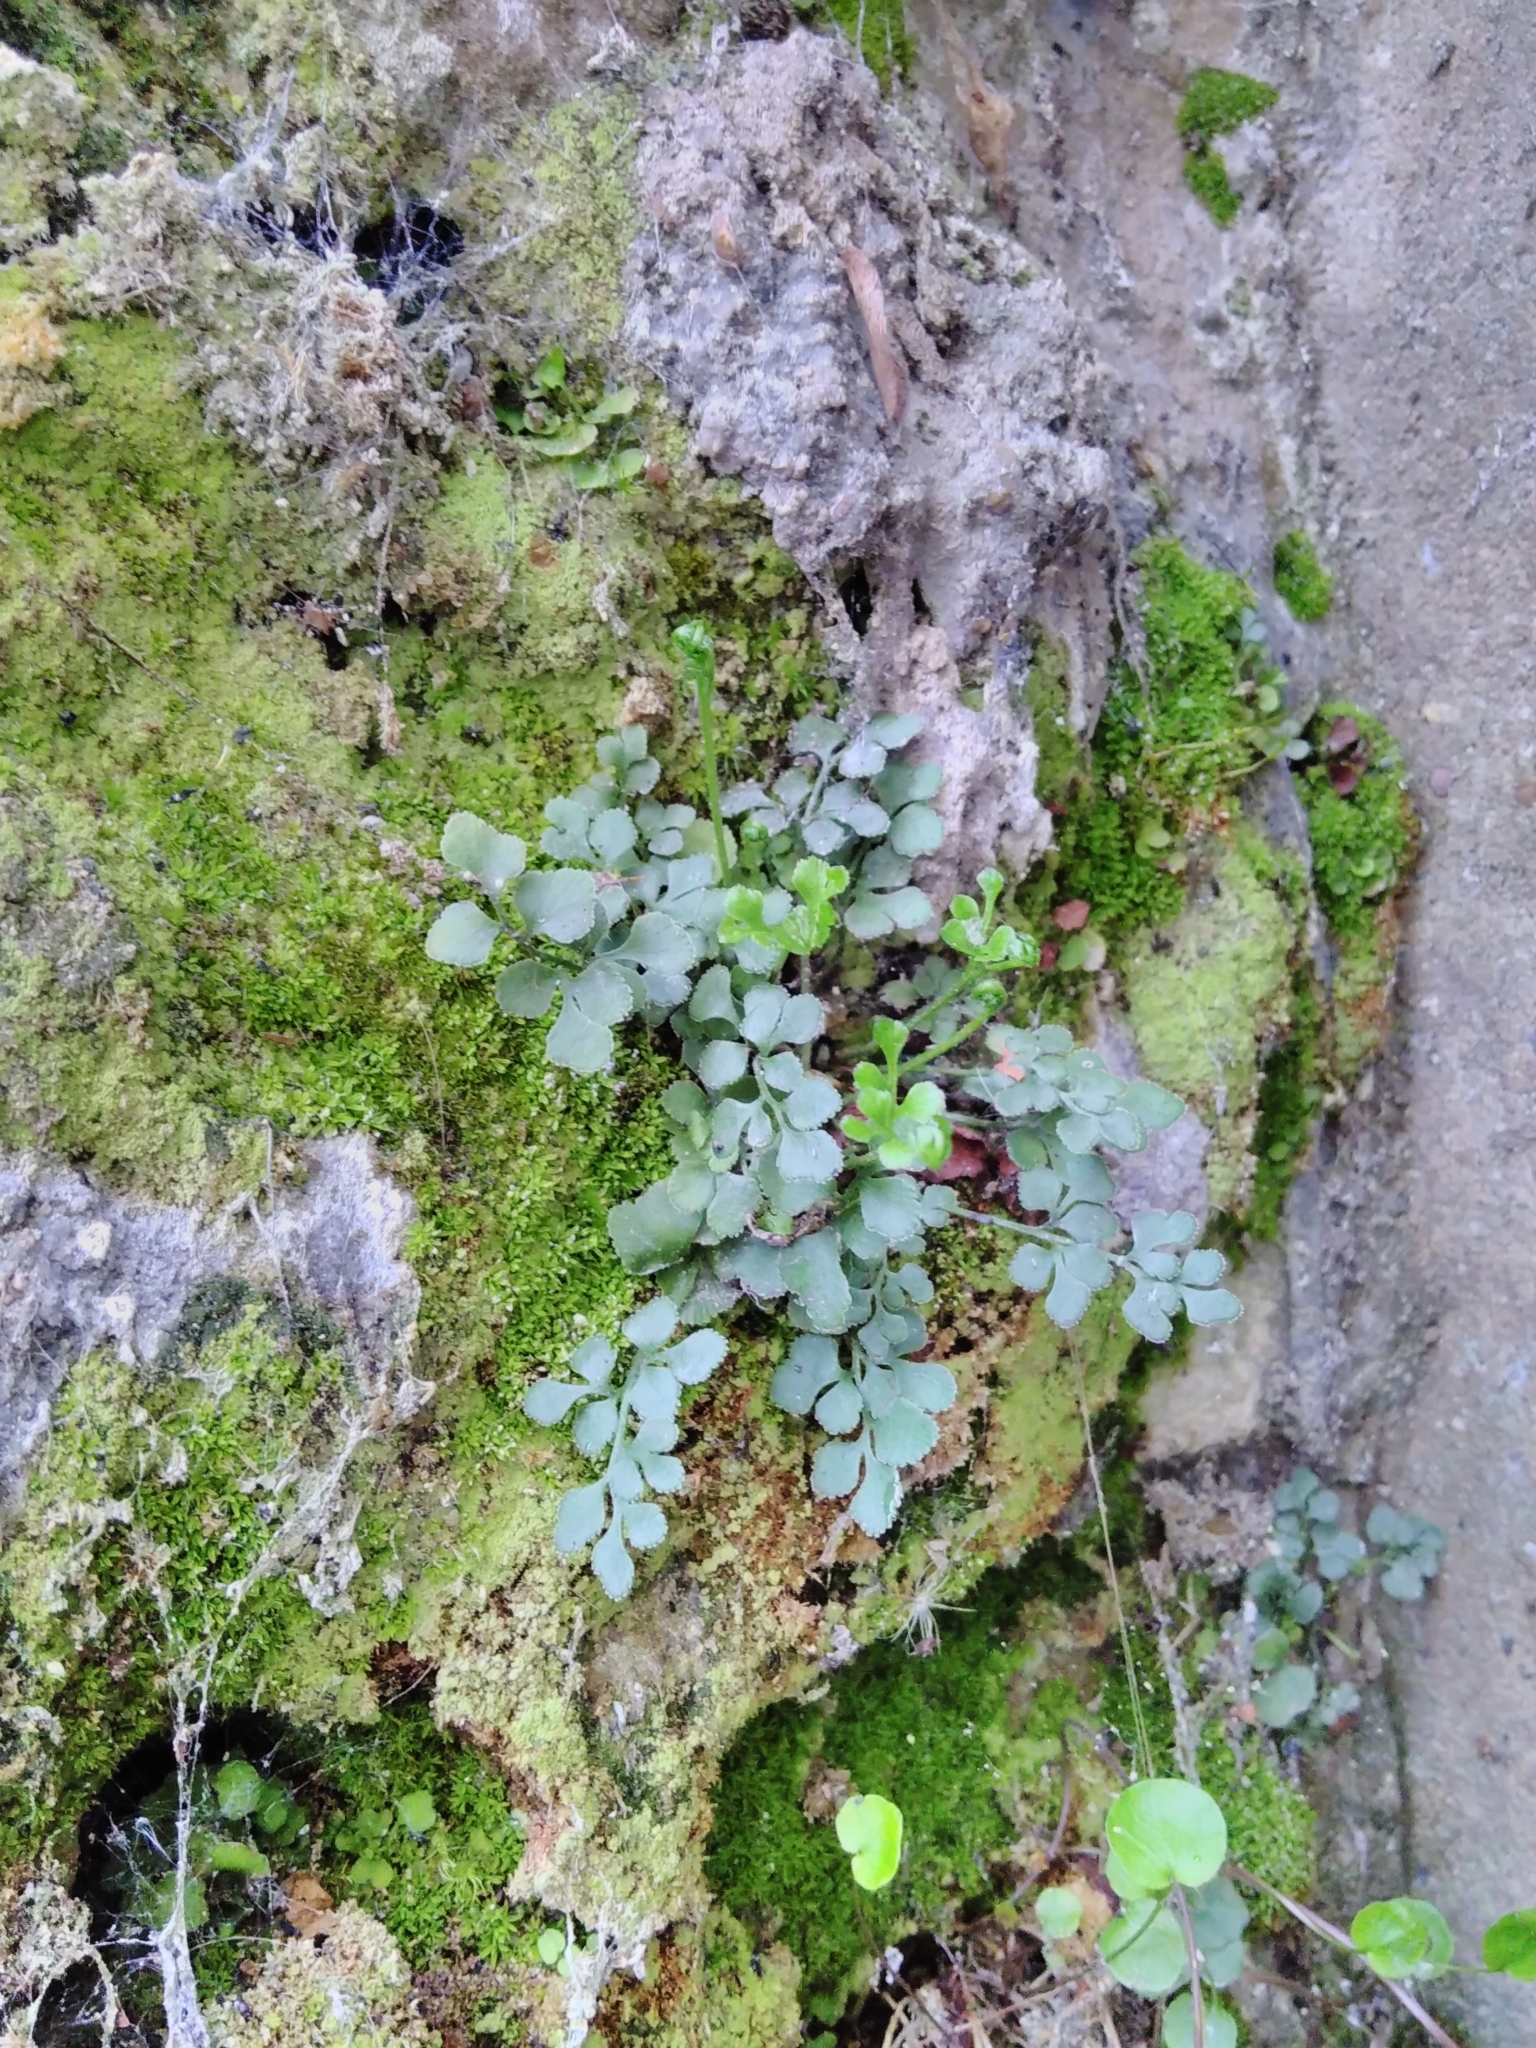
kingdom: Plantae
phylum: Tracheophyta
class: Polypodiopsida
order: Polypodiales
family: Aspleniaceae
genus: Asplenium
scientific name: Asplenium ruta-muraria
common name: Wall-rue
